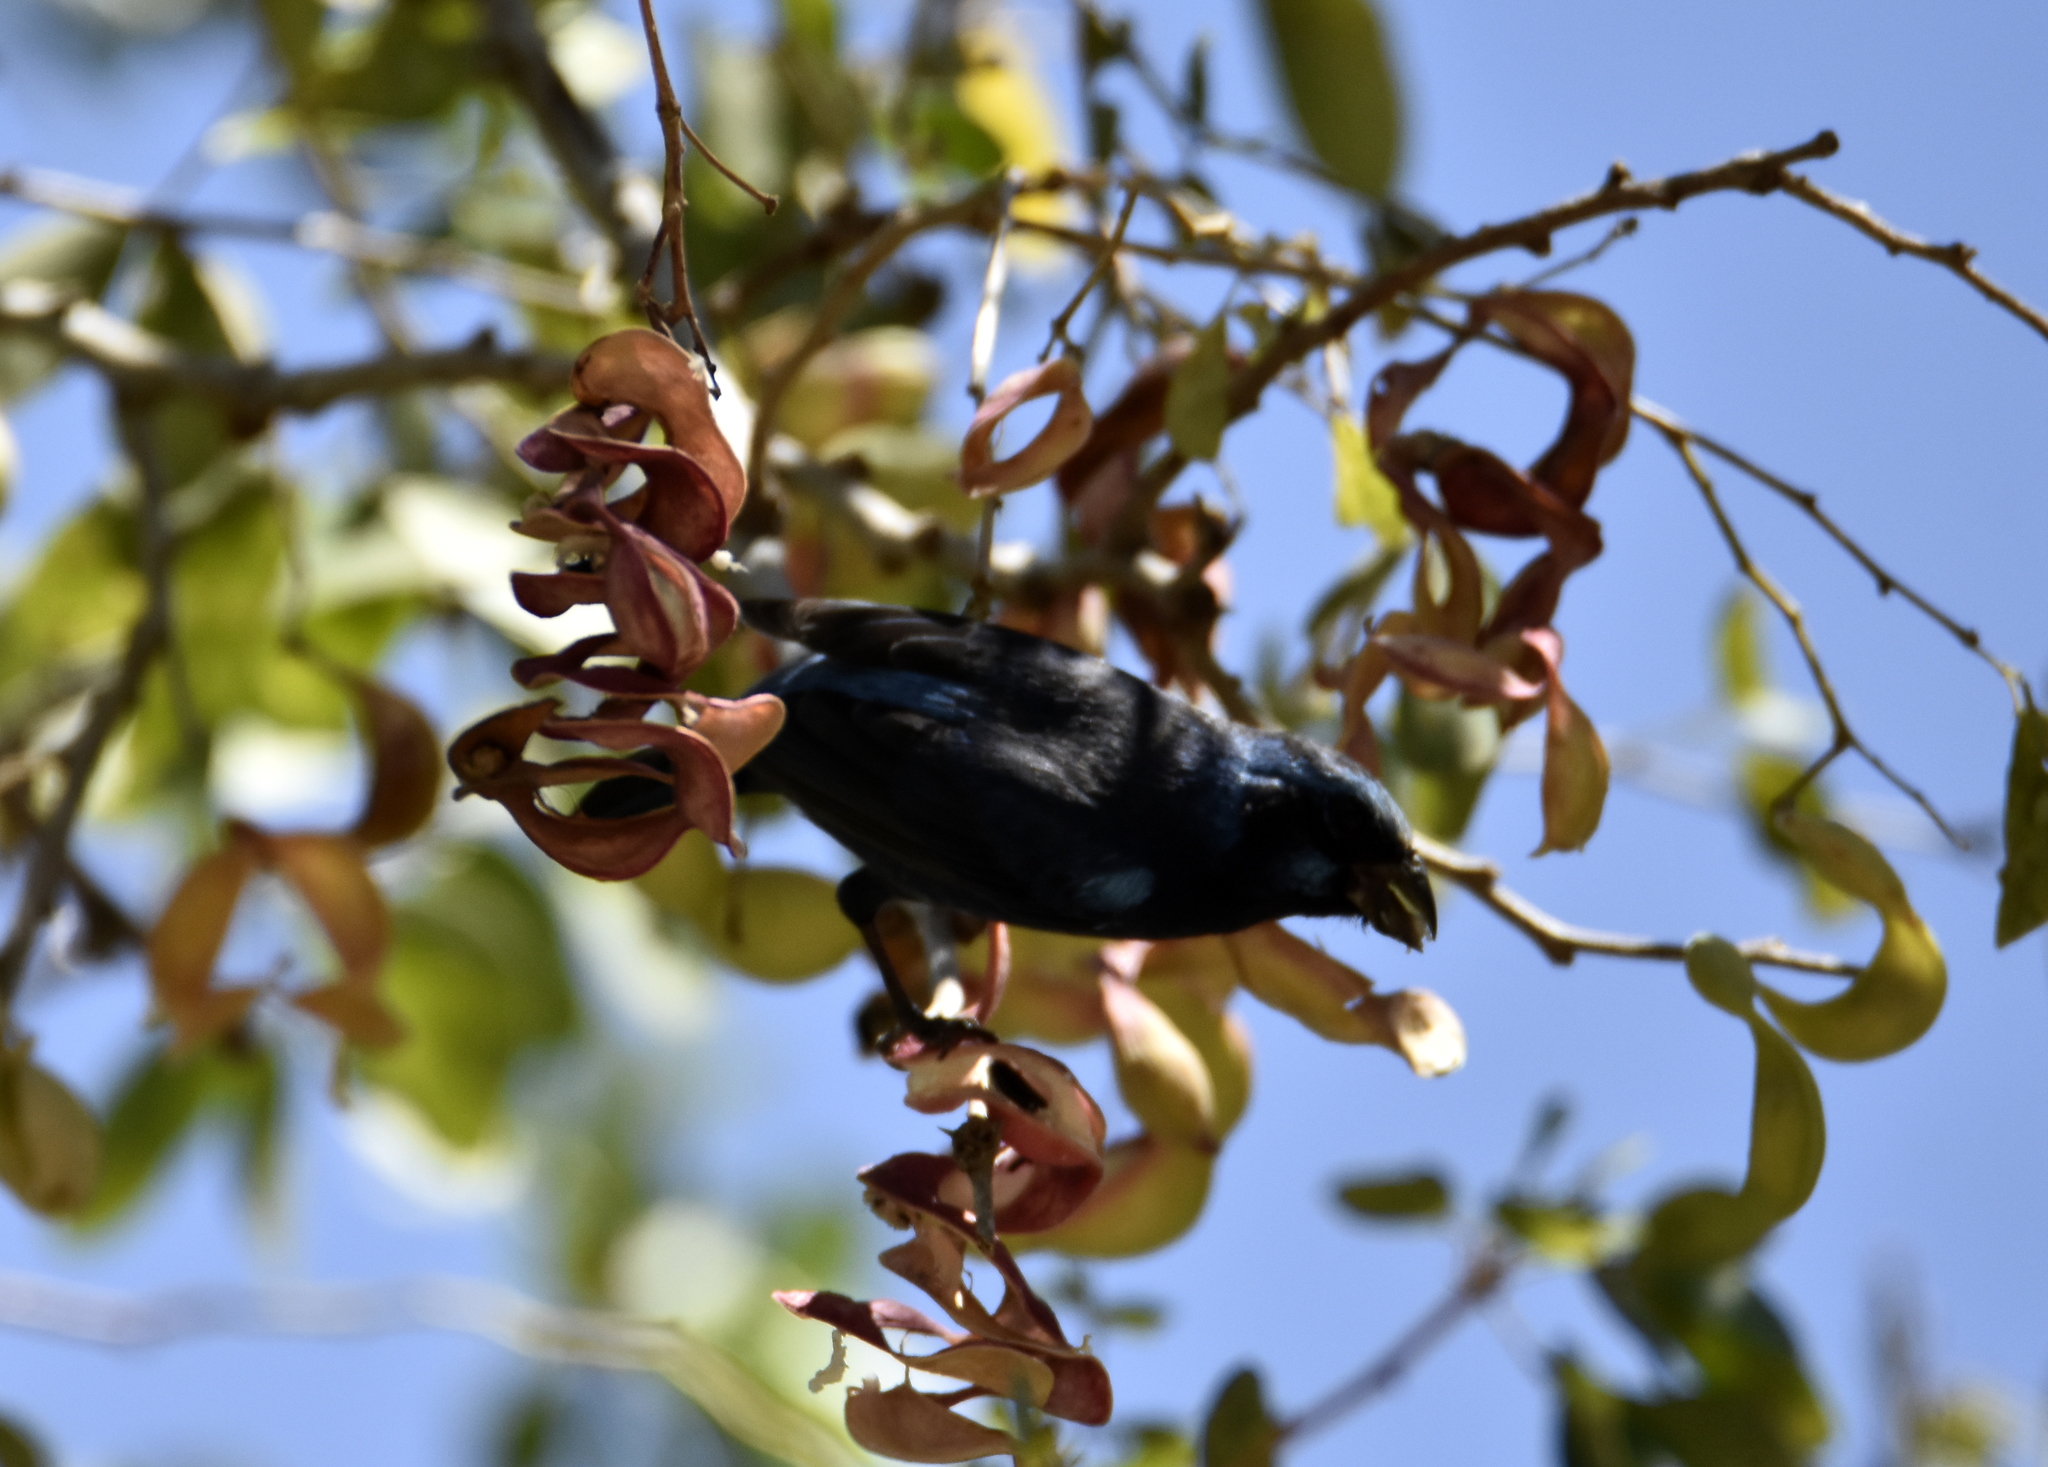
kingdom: Animalia
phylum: Chordata
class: Aves
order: Passeriformes
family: Cardinalidae
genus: Cyanocompsa
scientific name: Cyanocompsa parellina
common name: Blue bunting
